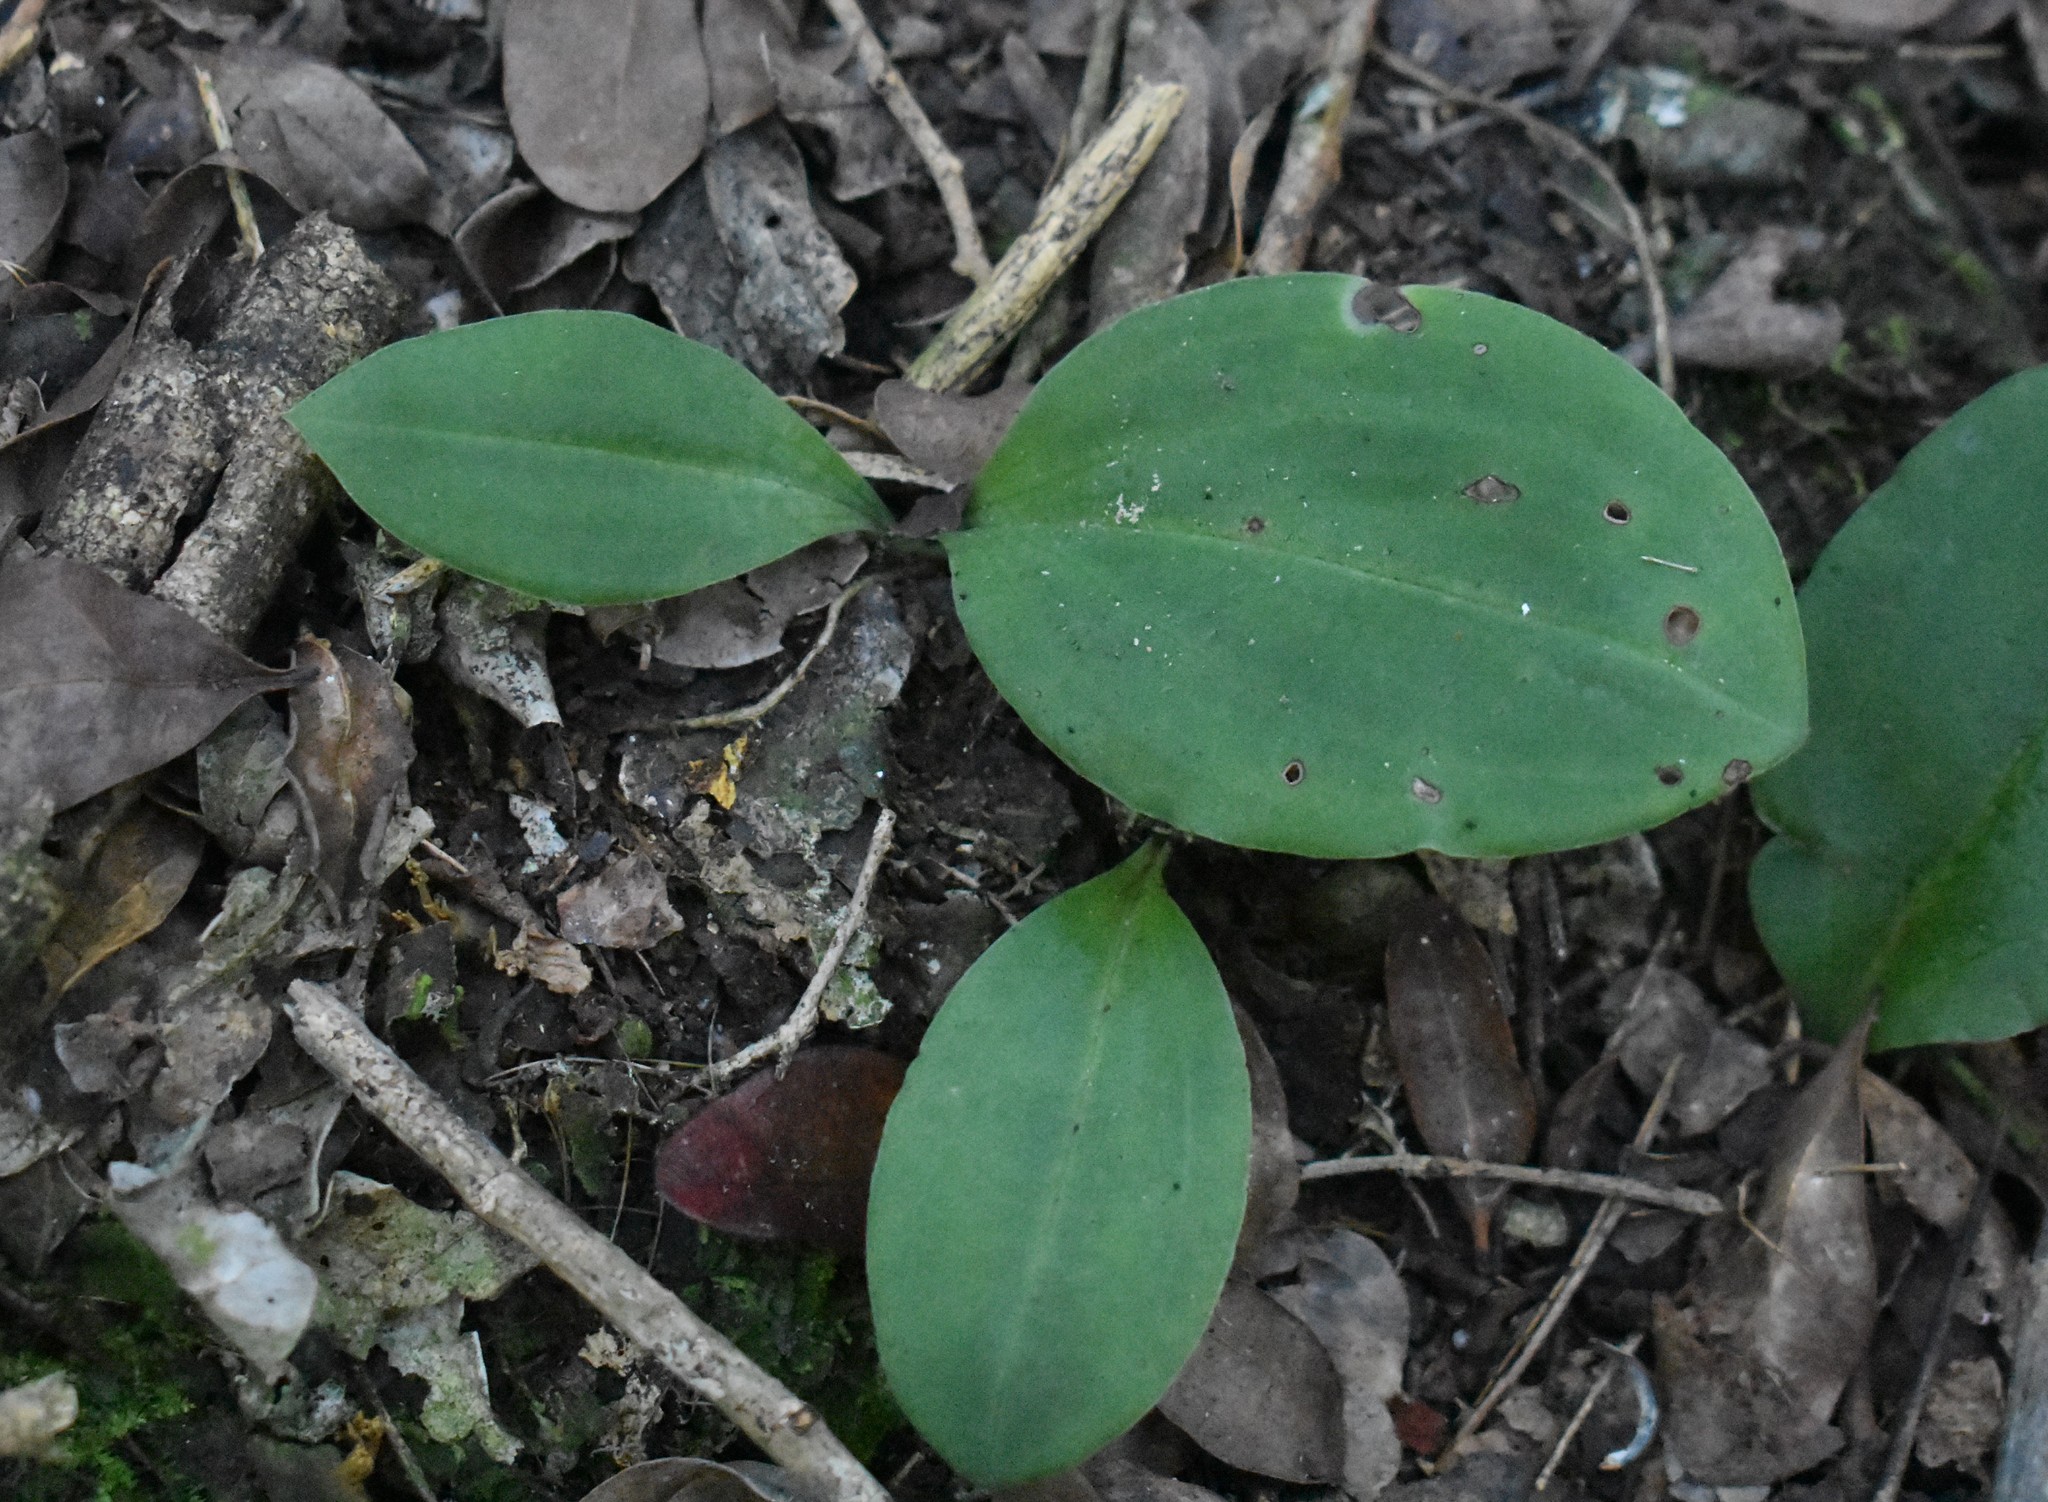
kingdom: Plantae
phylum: Tracheophyta
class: Liliopsida
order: Asparagales
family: Orchidaceae
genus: Habenaria
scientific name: Habenaria arenaria
